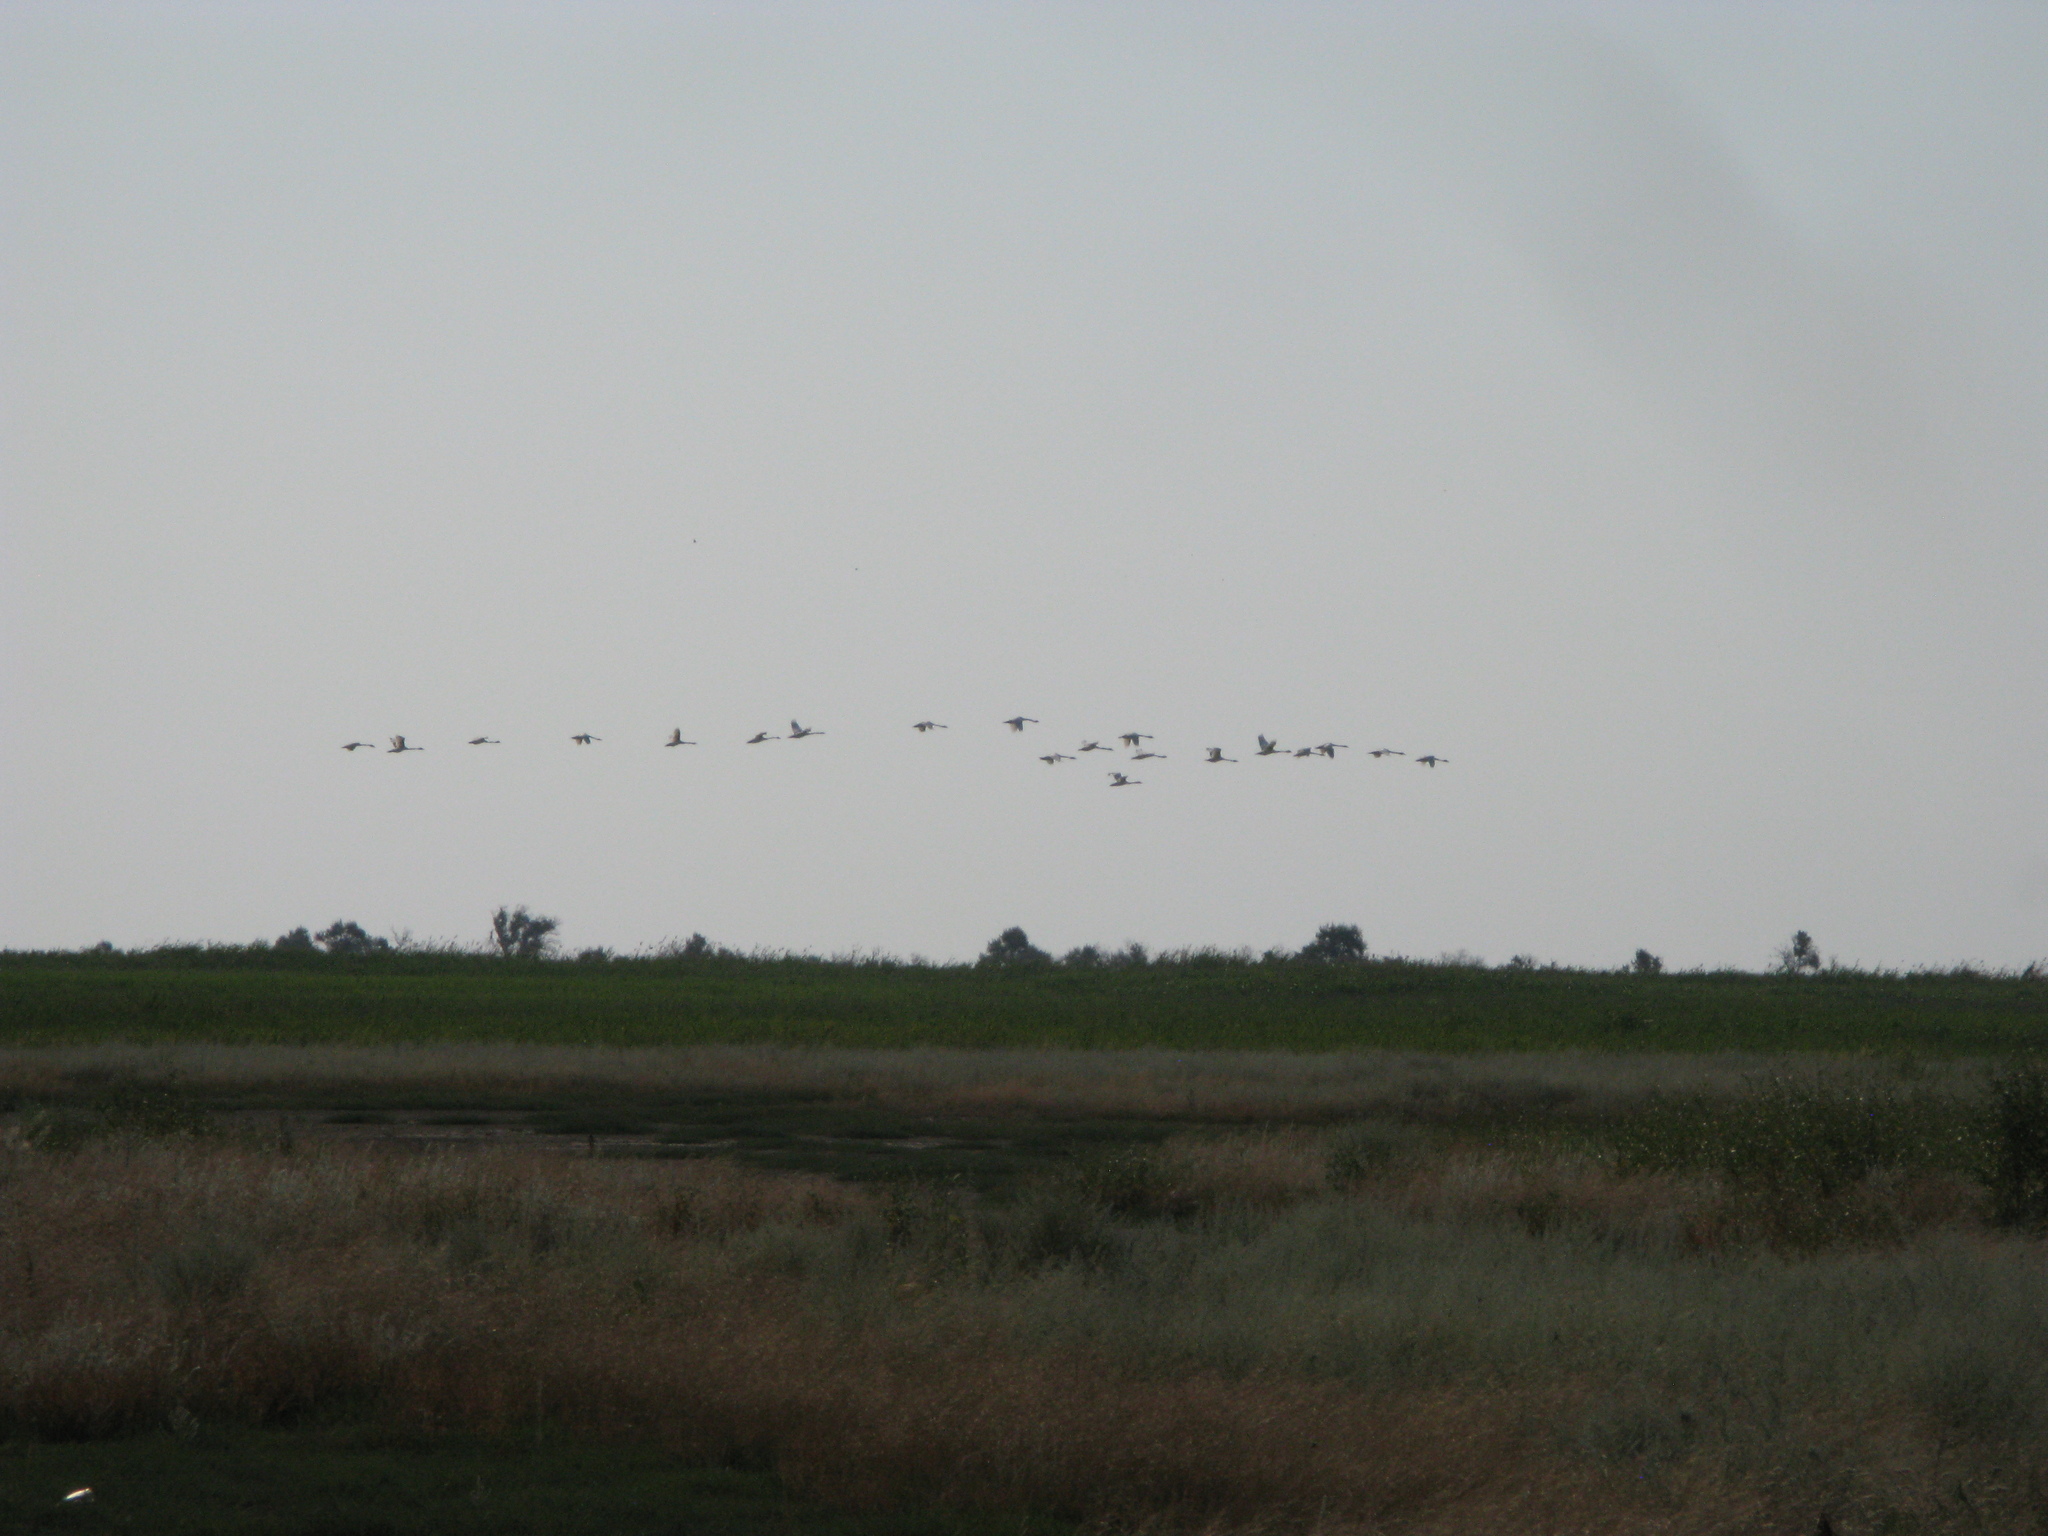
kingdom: Animalia
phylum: Chordata
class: Aves
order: Anseriformes
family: Anatidae
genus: Cygnus
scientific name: Cygnus
